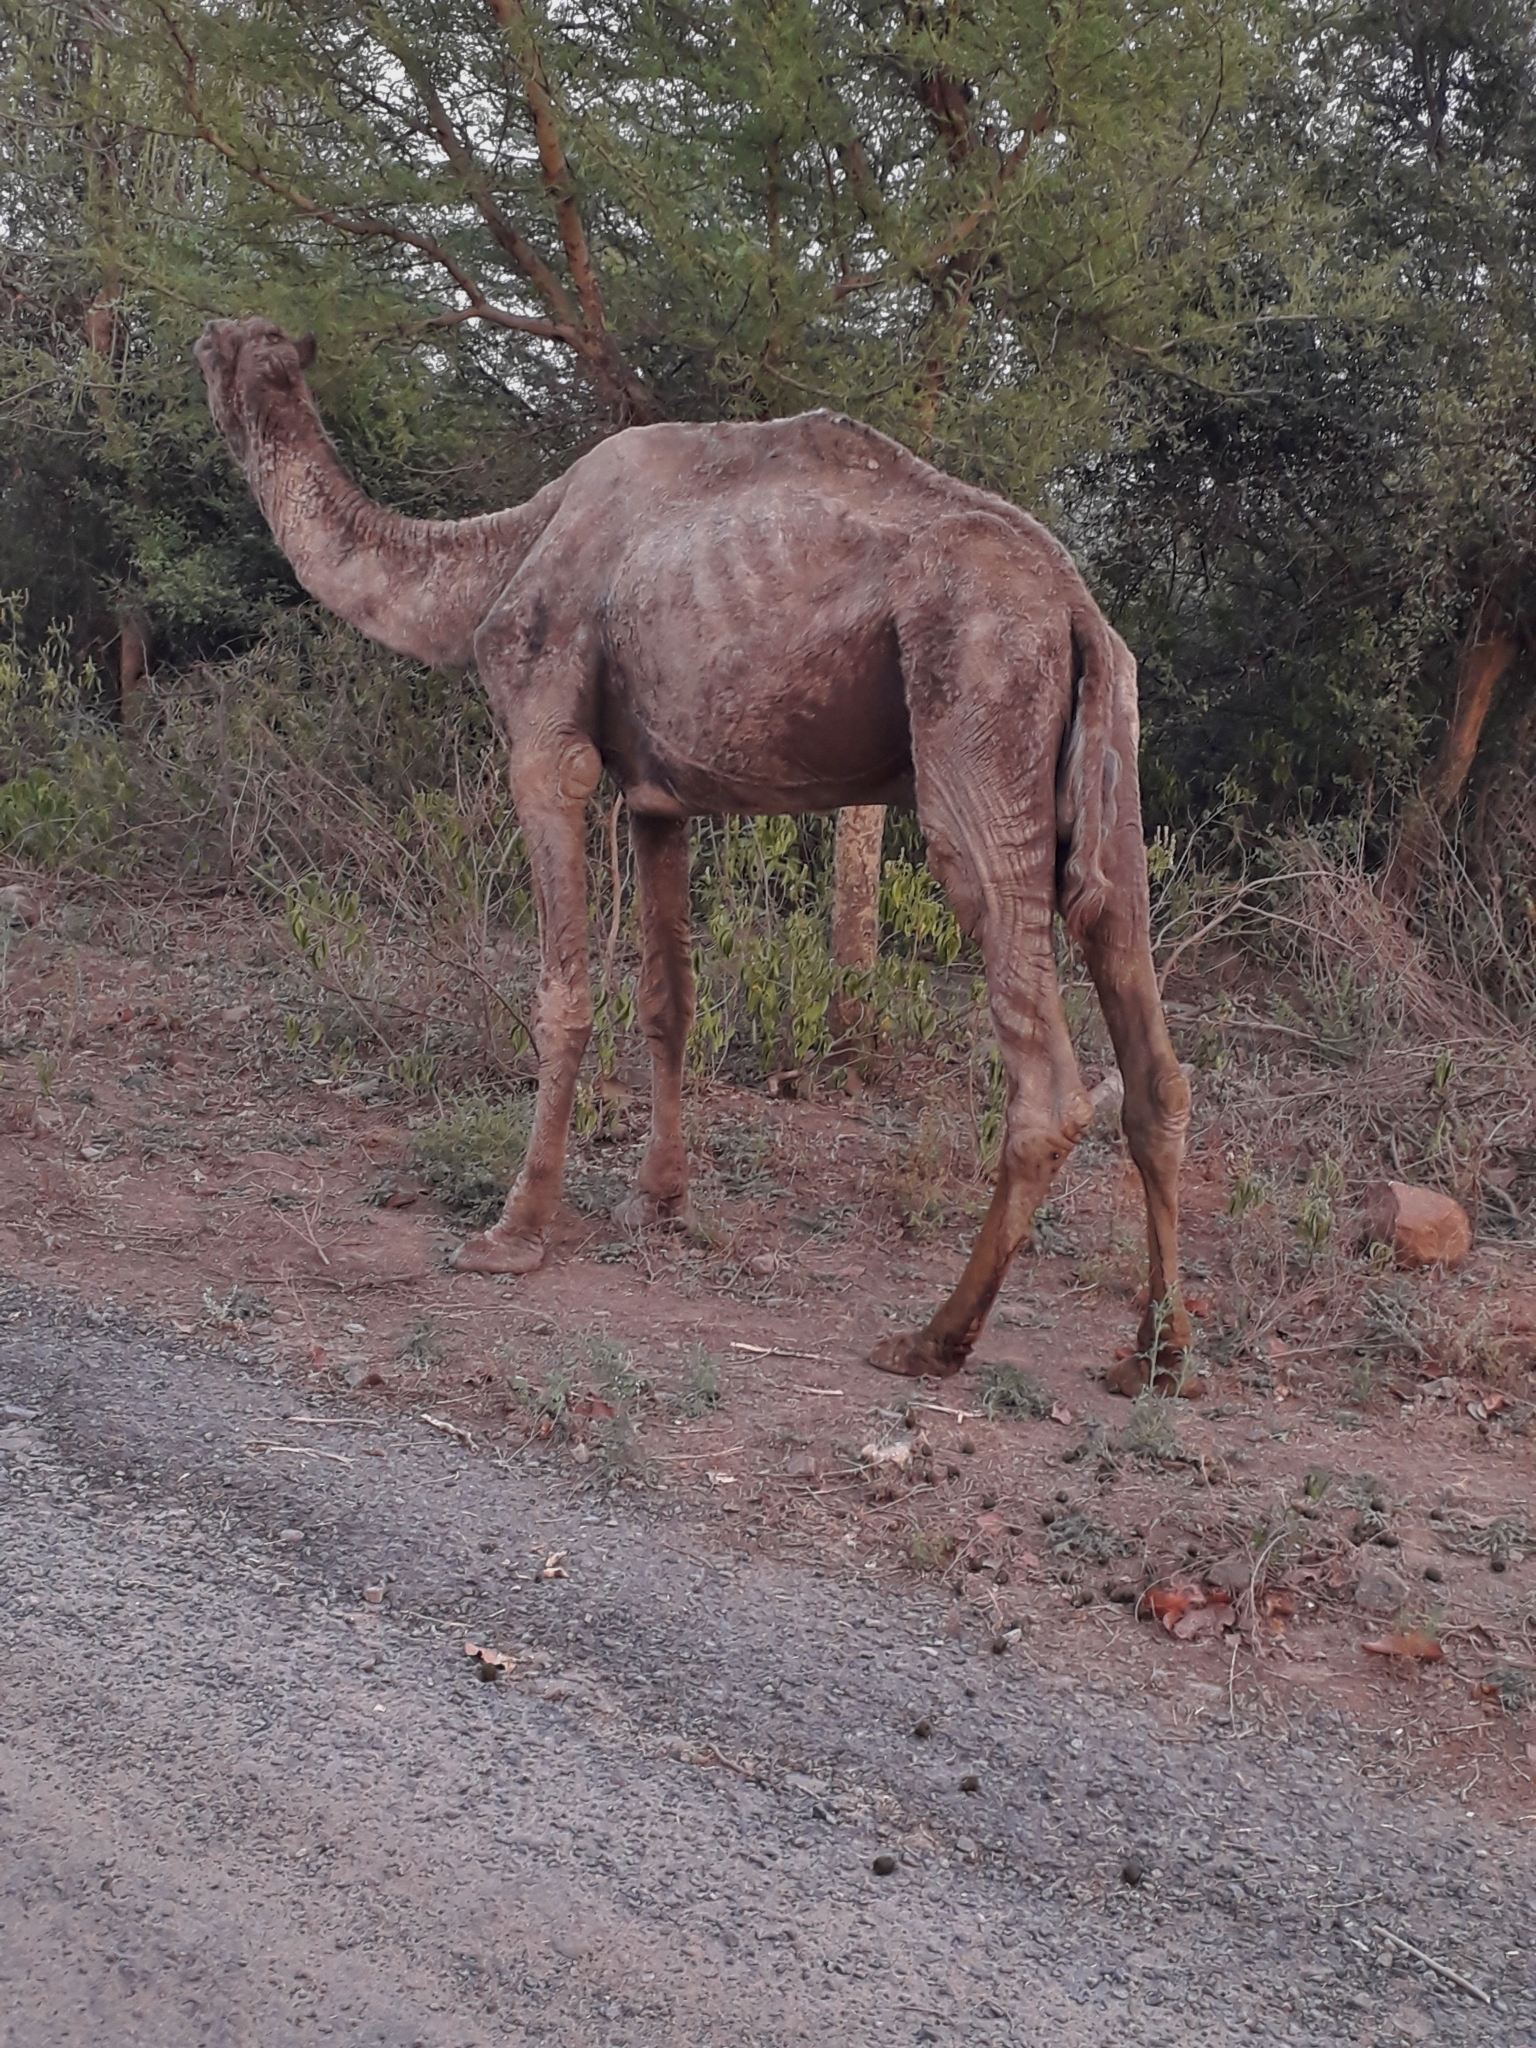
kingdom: Animalia
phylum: Chordata
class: Mammalia
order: Artiodactyla
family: Camelidae
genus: Camelus
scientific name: Camelus dromedarius
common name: One-humped camel
